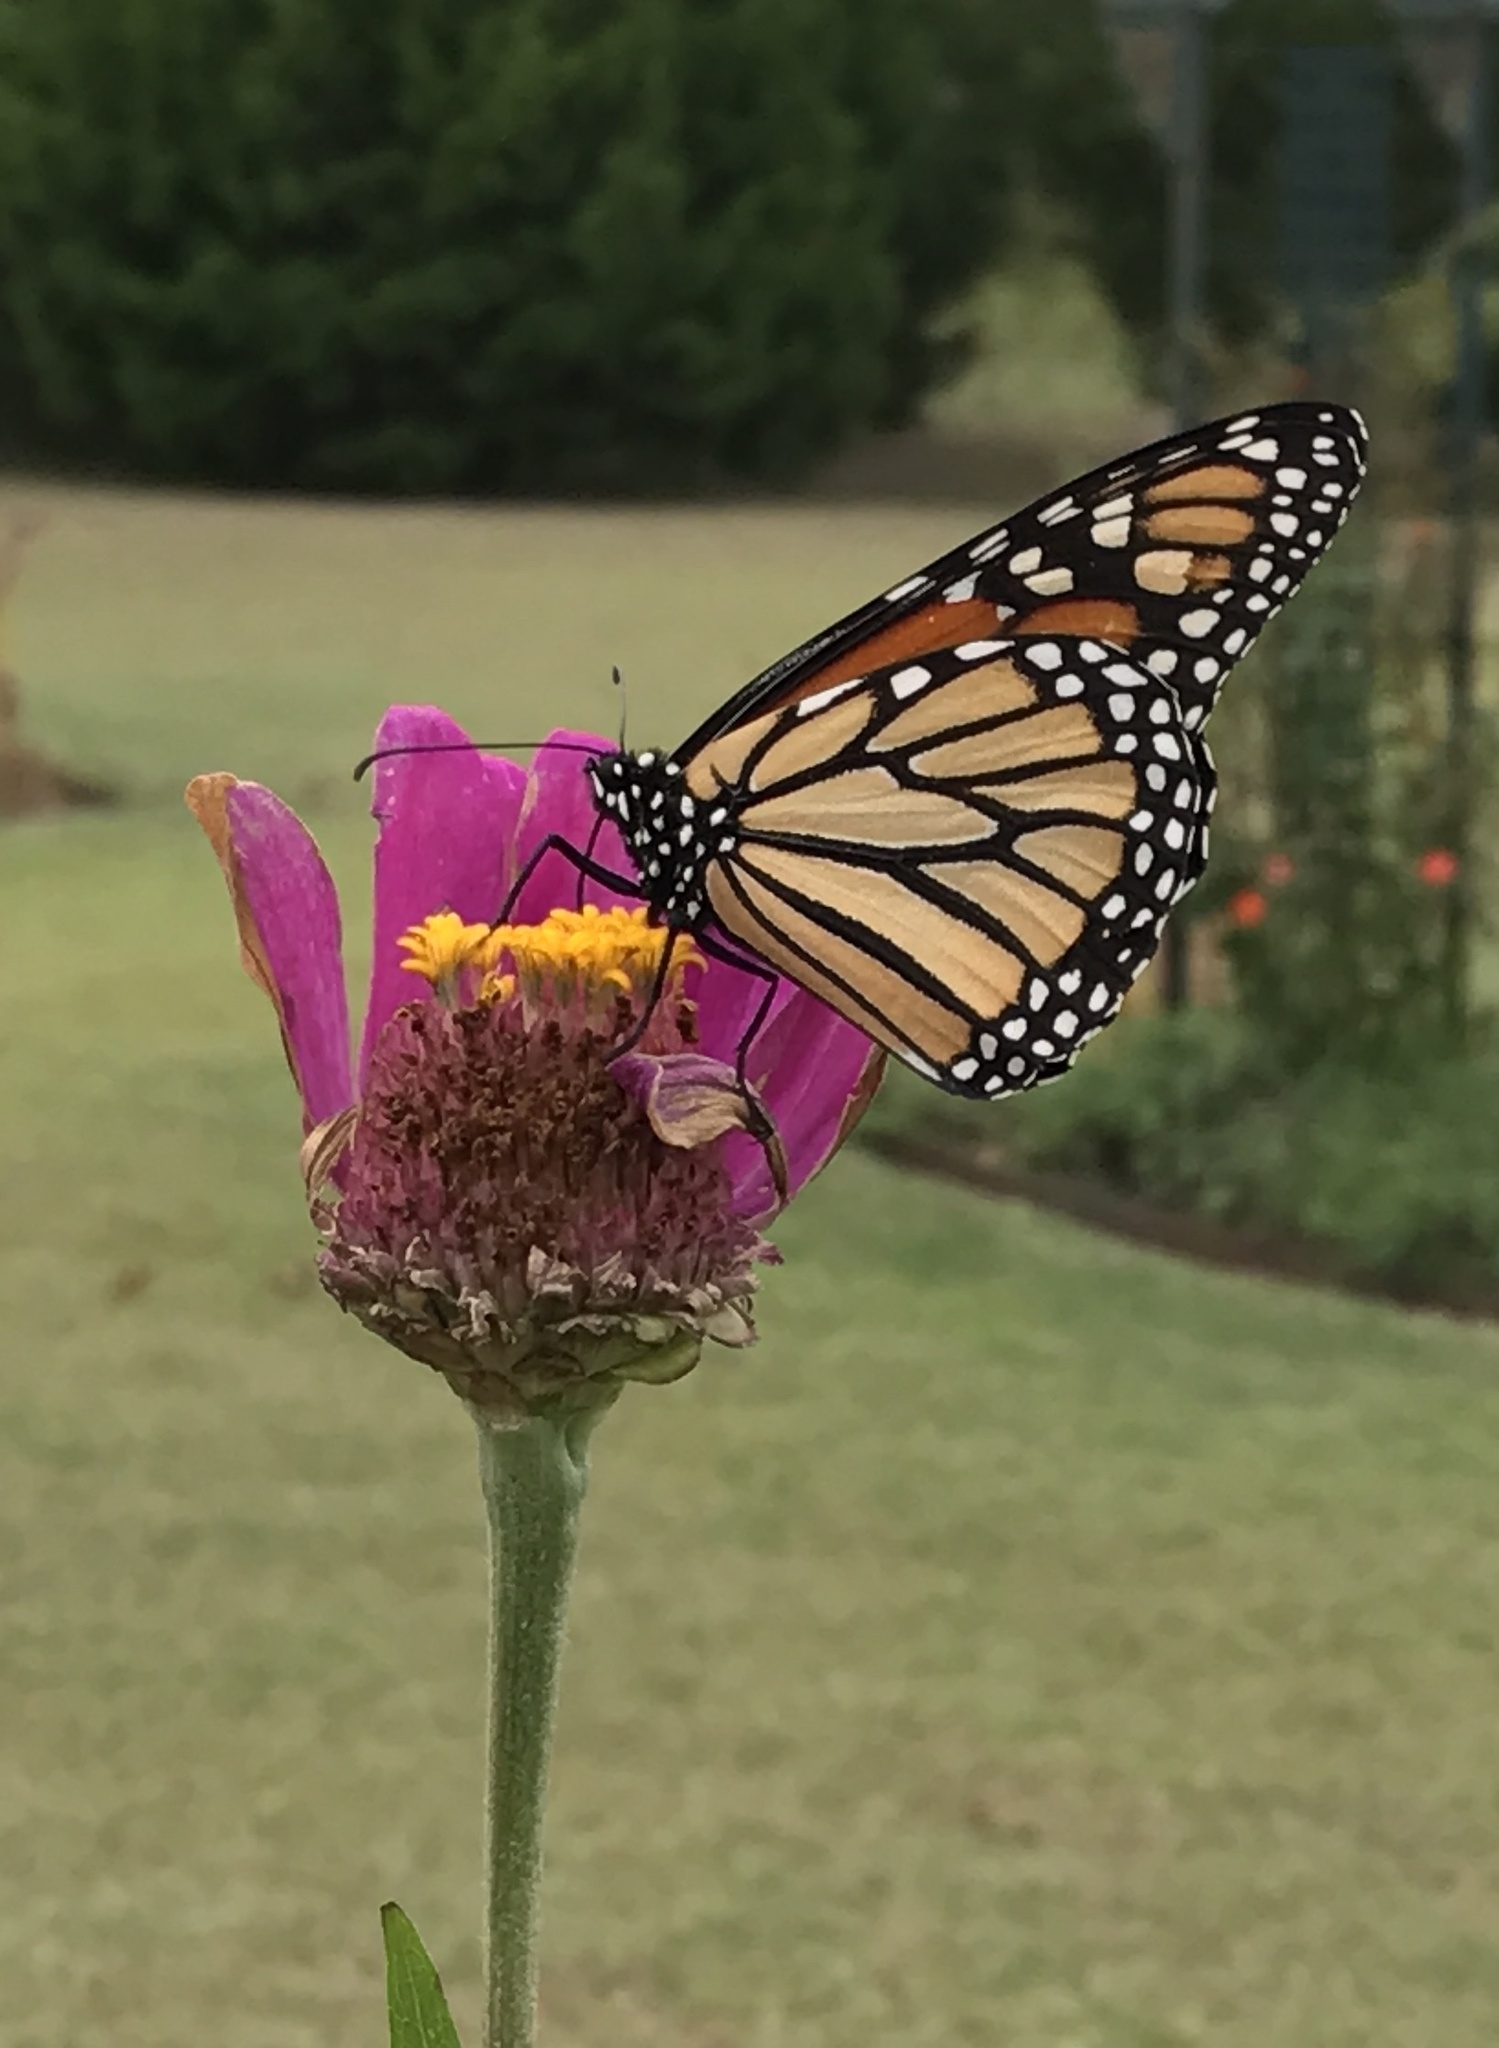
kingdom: Animalia
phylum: Arthropoda
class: Insecta
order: Lepidoptera
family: Nymphalidae
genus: Danaus
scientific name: Danaus plexippus
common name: Monarch
